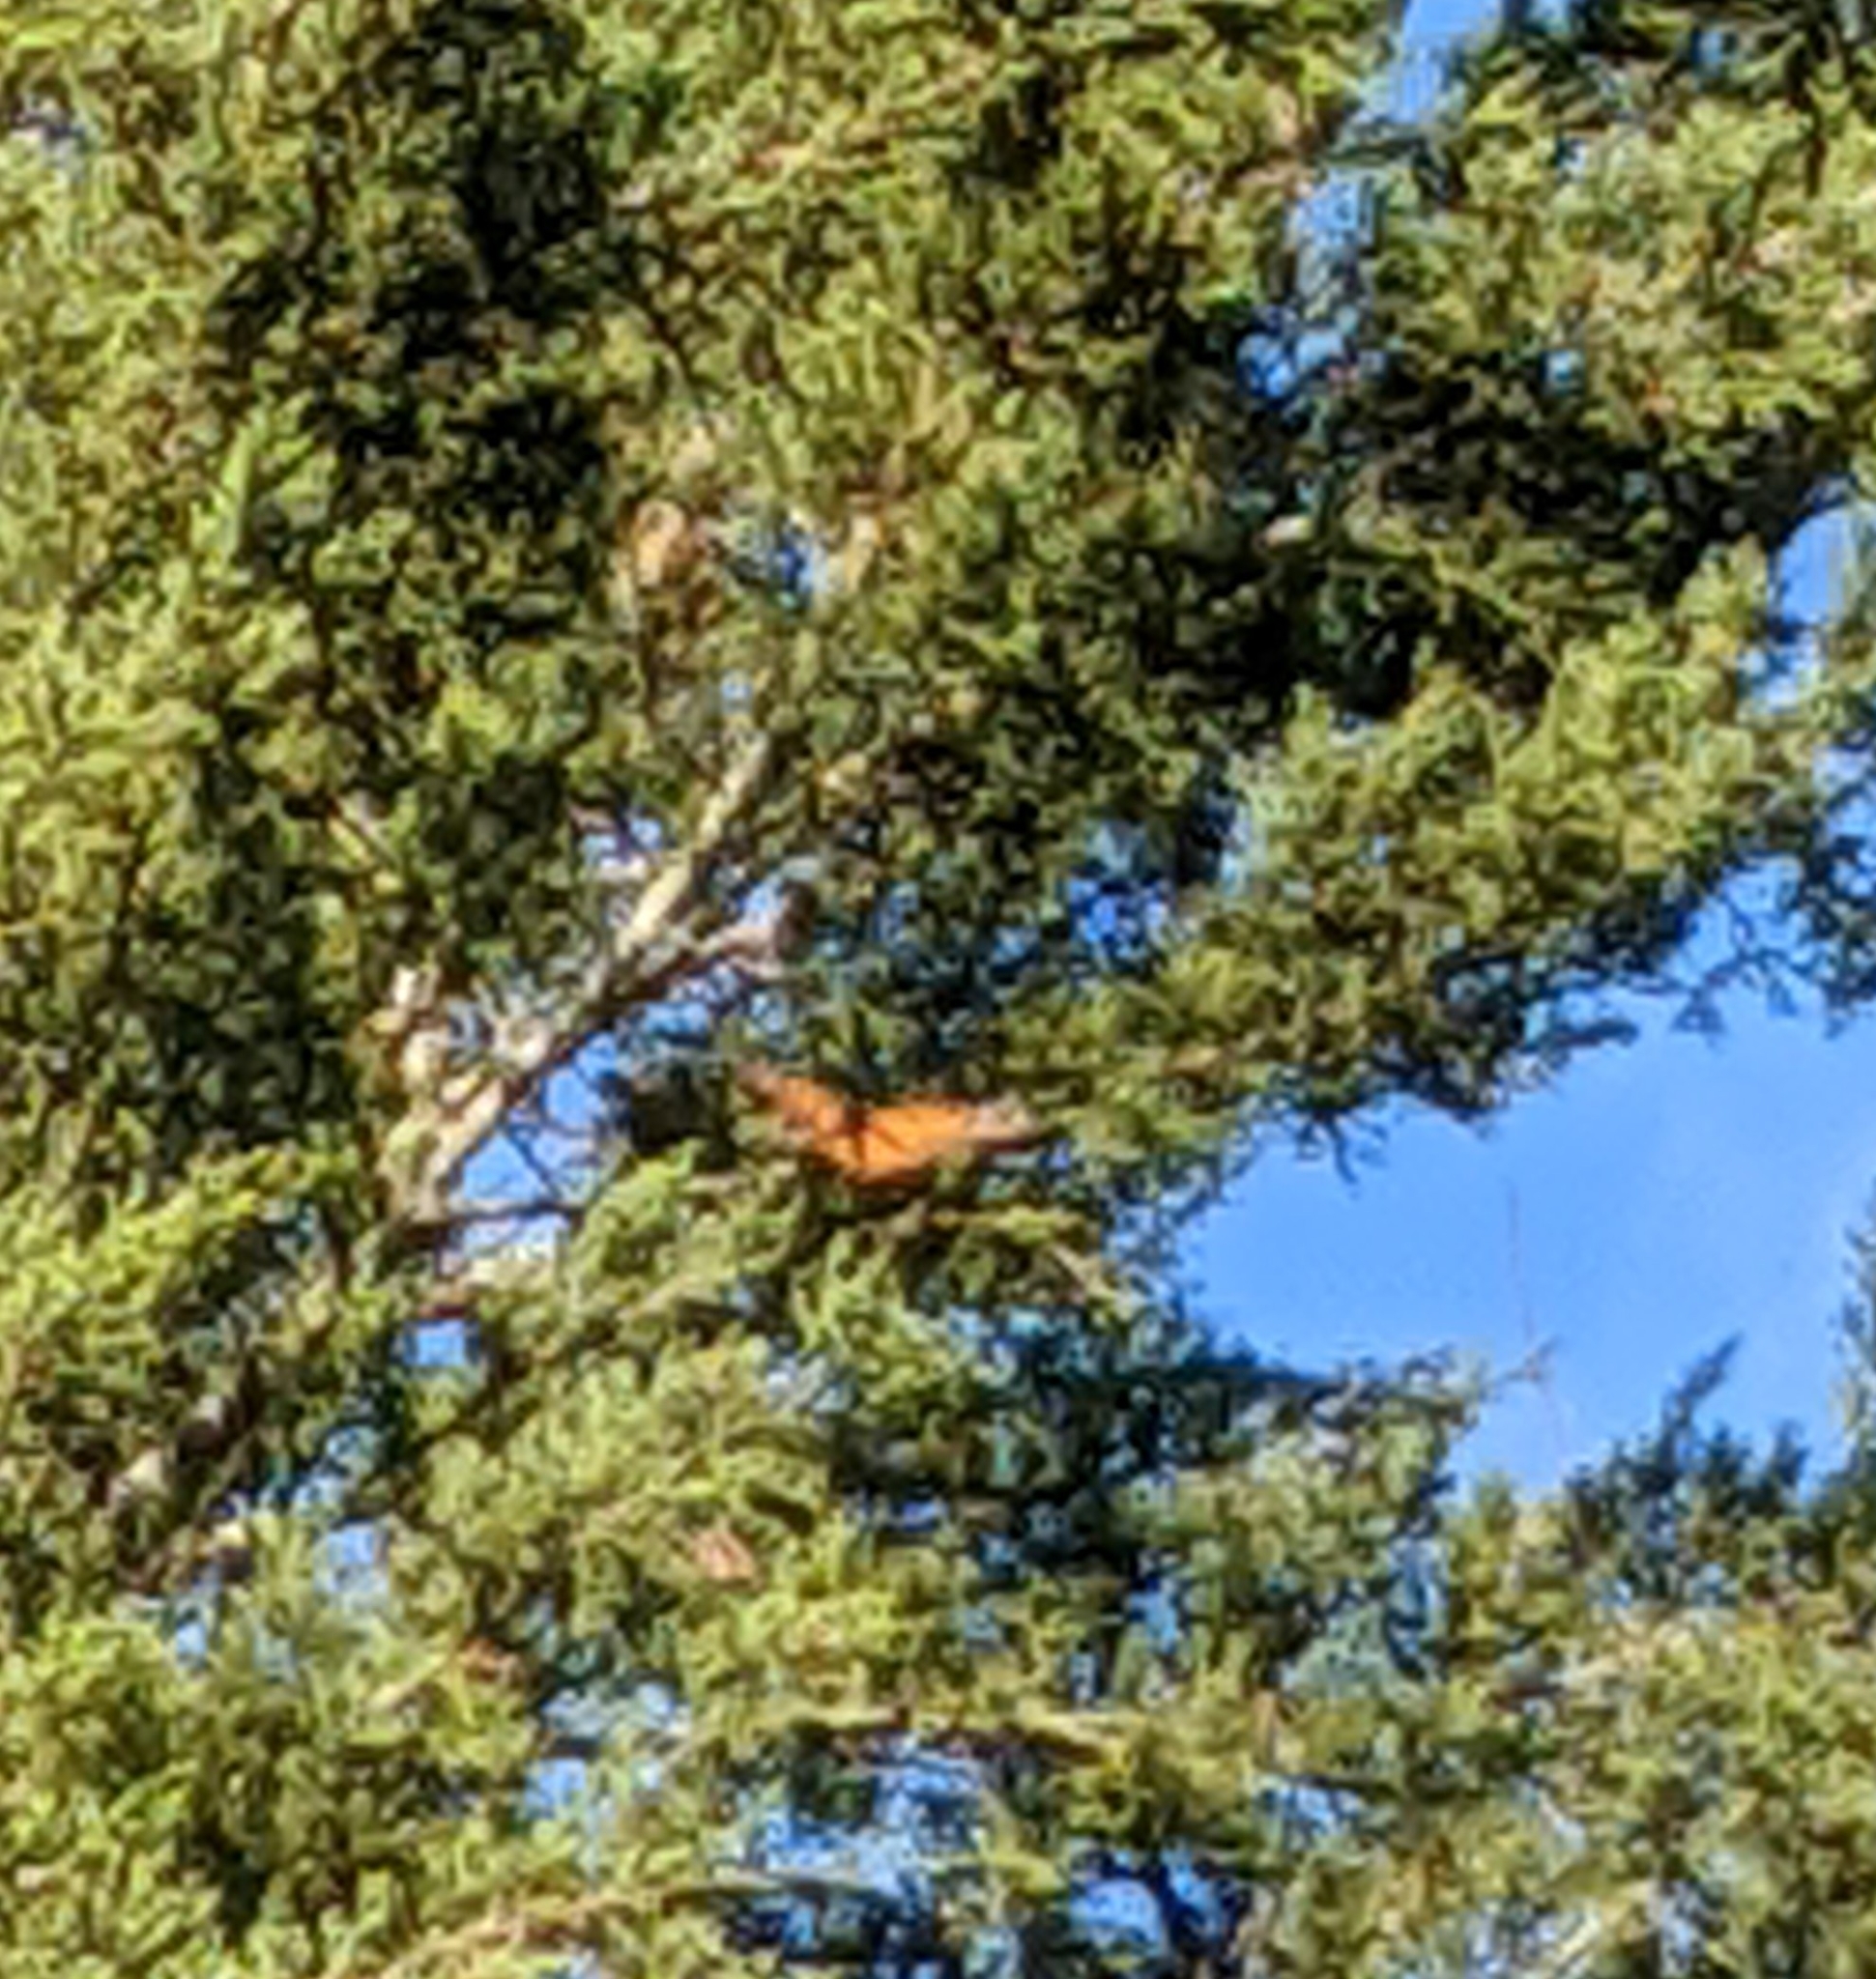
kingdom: Animalia
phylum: Arthropoda
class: Insecta
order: Lepidoptera
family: Nymphalidae
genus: Danaus
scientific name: Danaus plexippus
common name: Monarch
